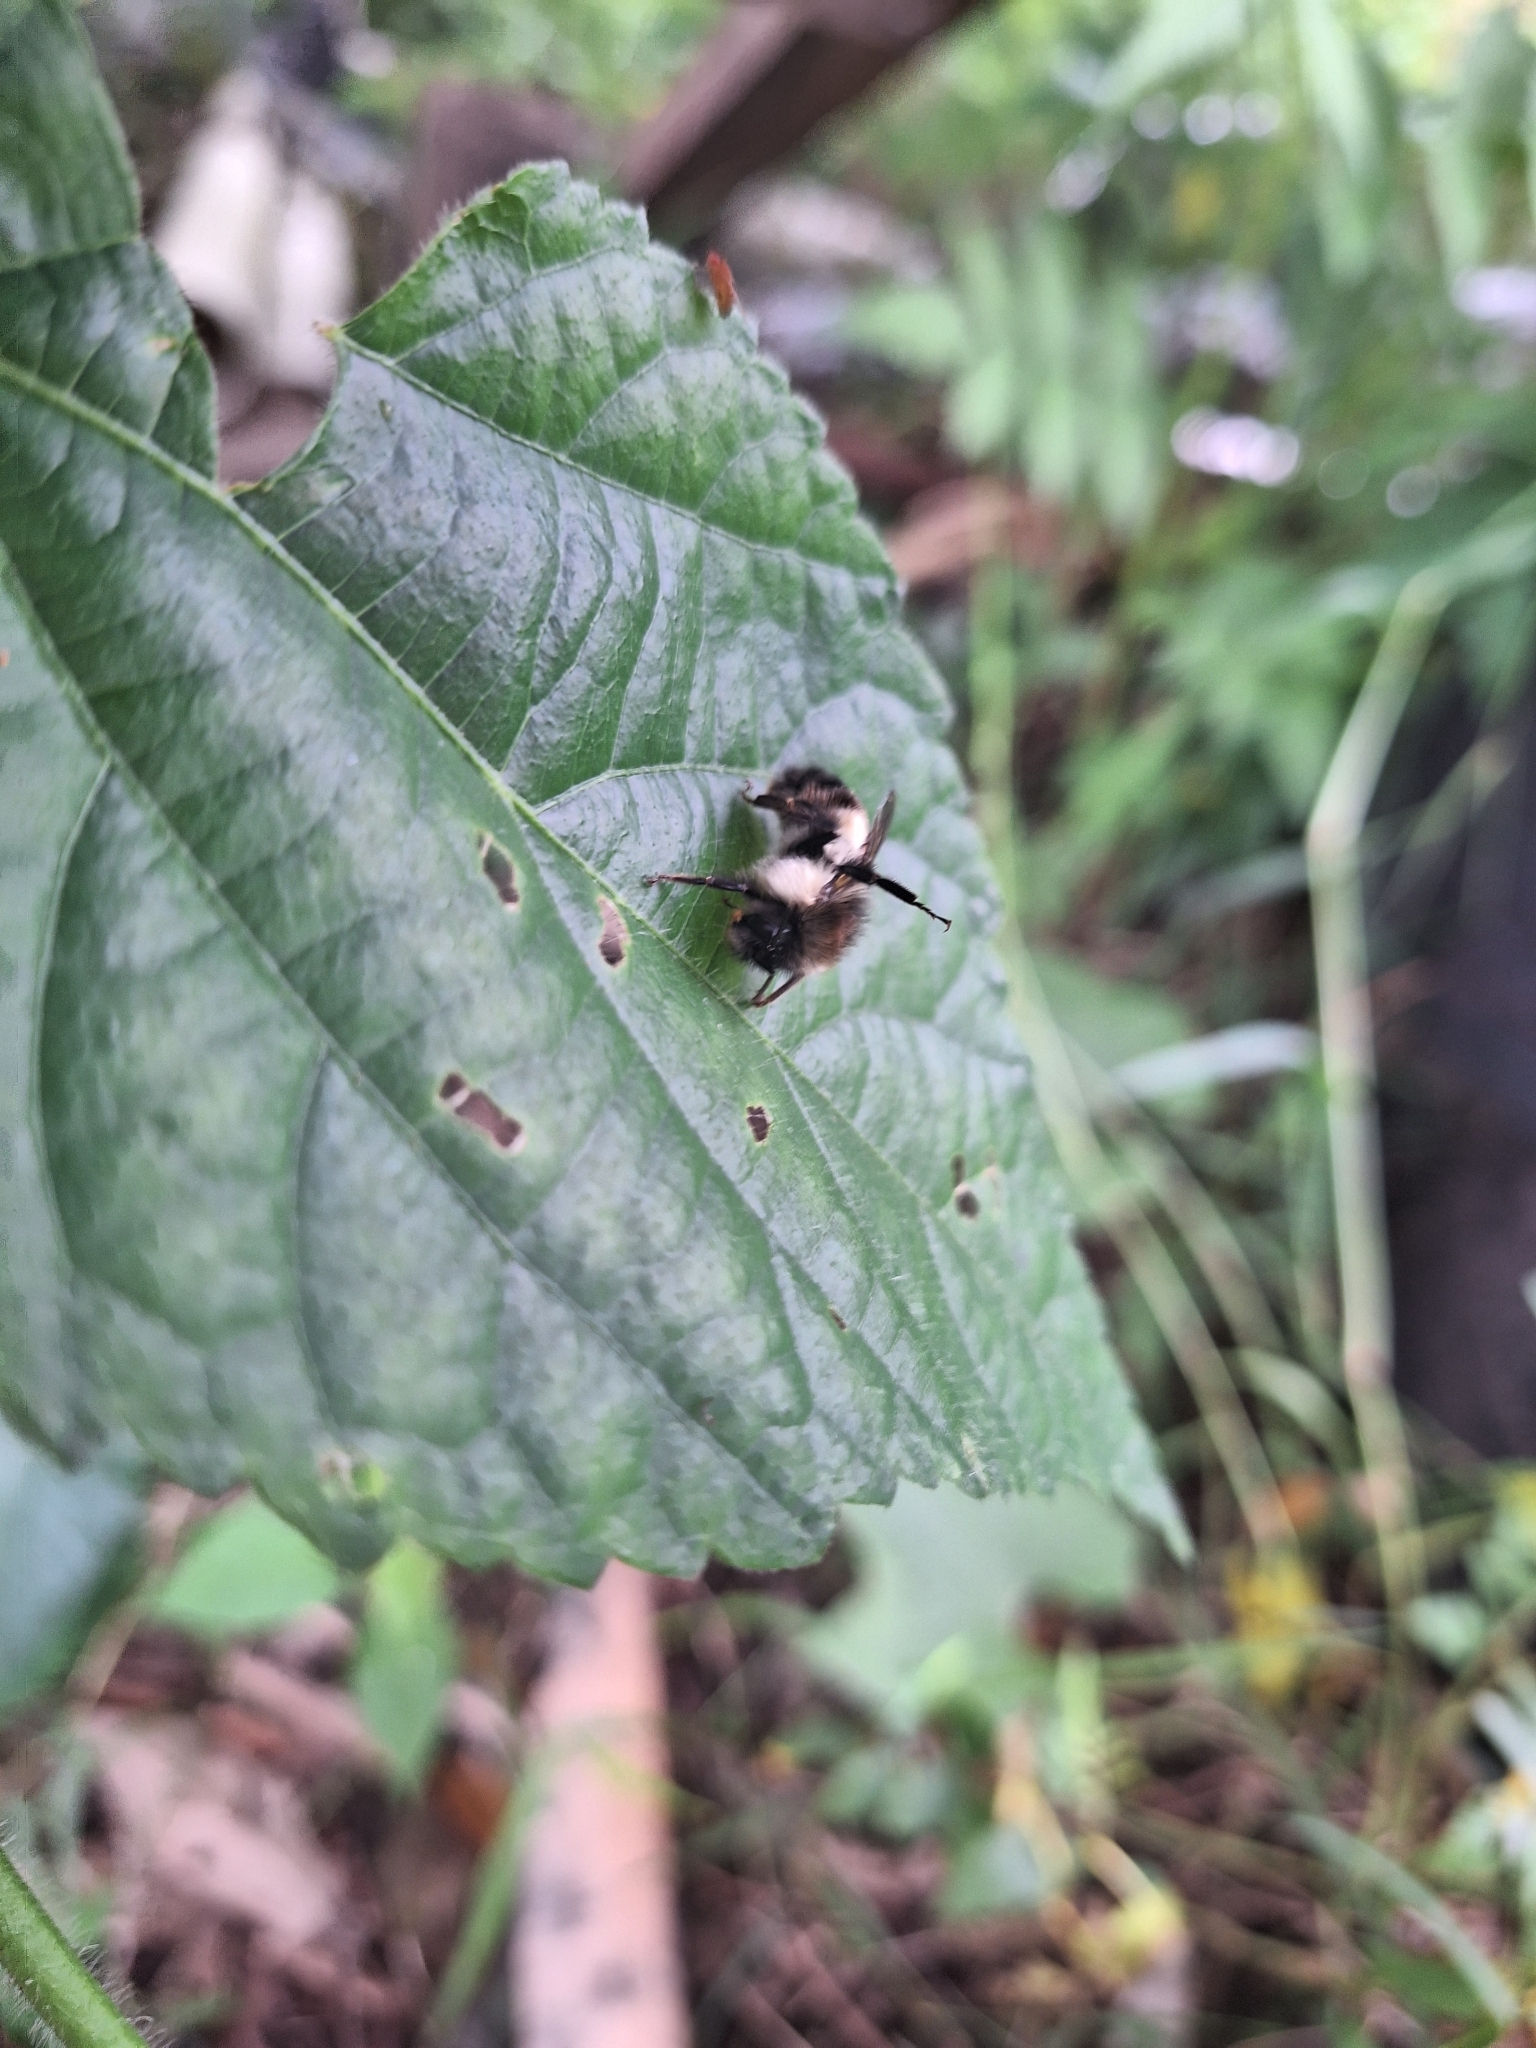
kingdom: Animalia
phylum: Arthropoda
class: Insecta
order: Hymenoptera
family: Apidae
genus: Bombus
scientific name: Bombus ephippiatus
